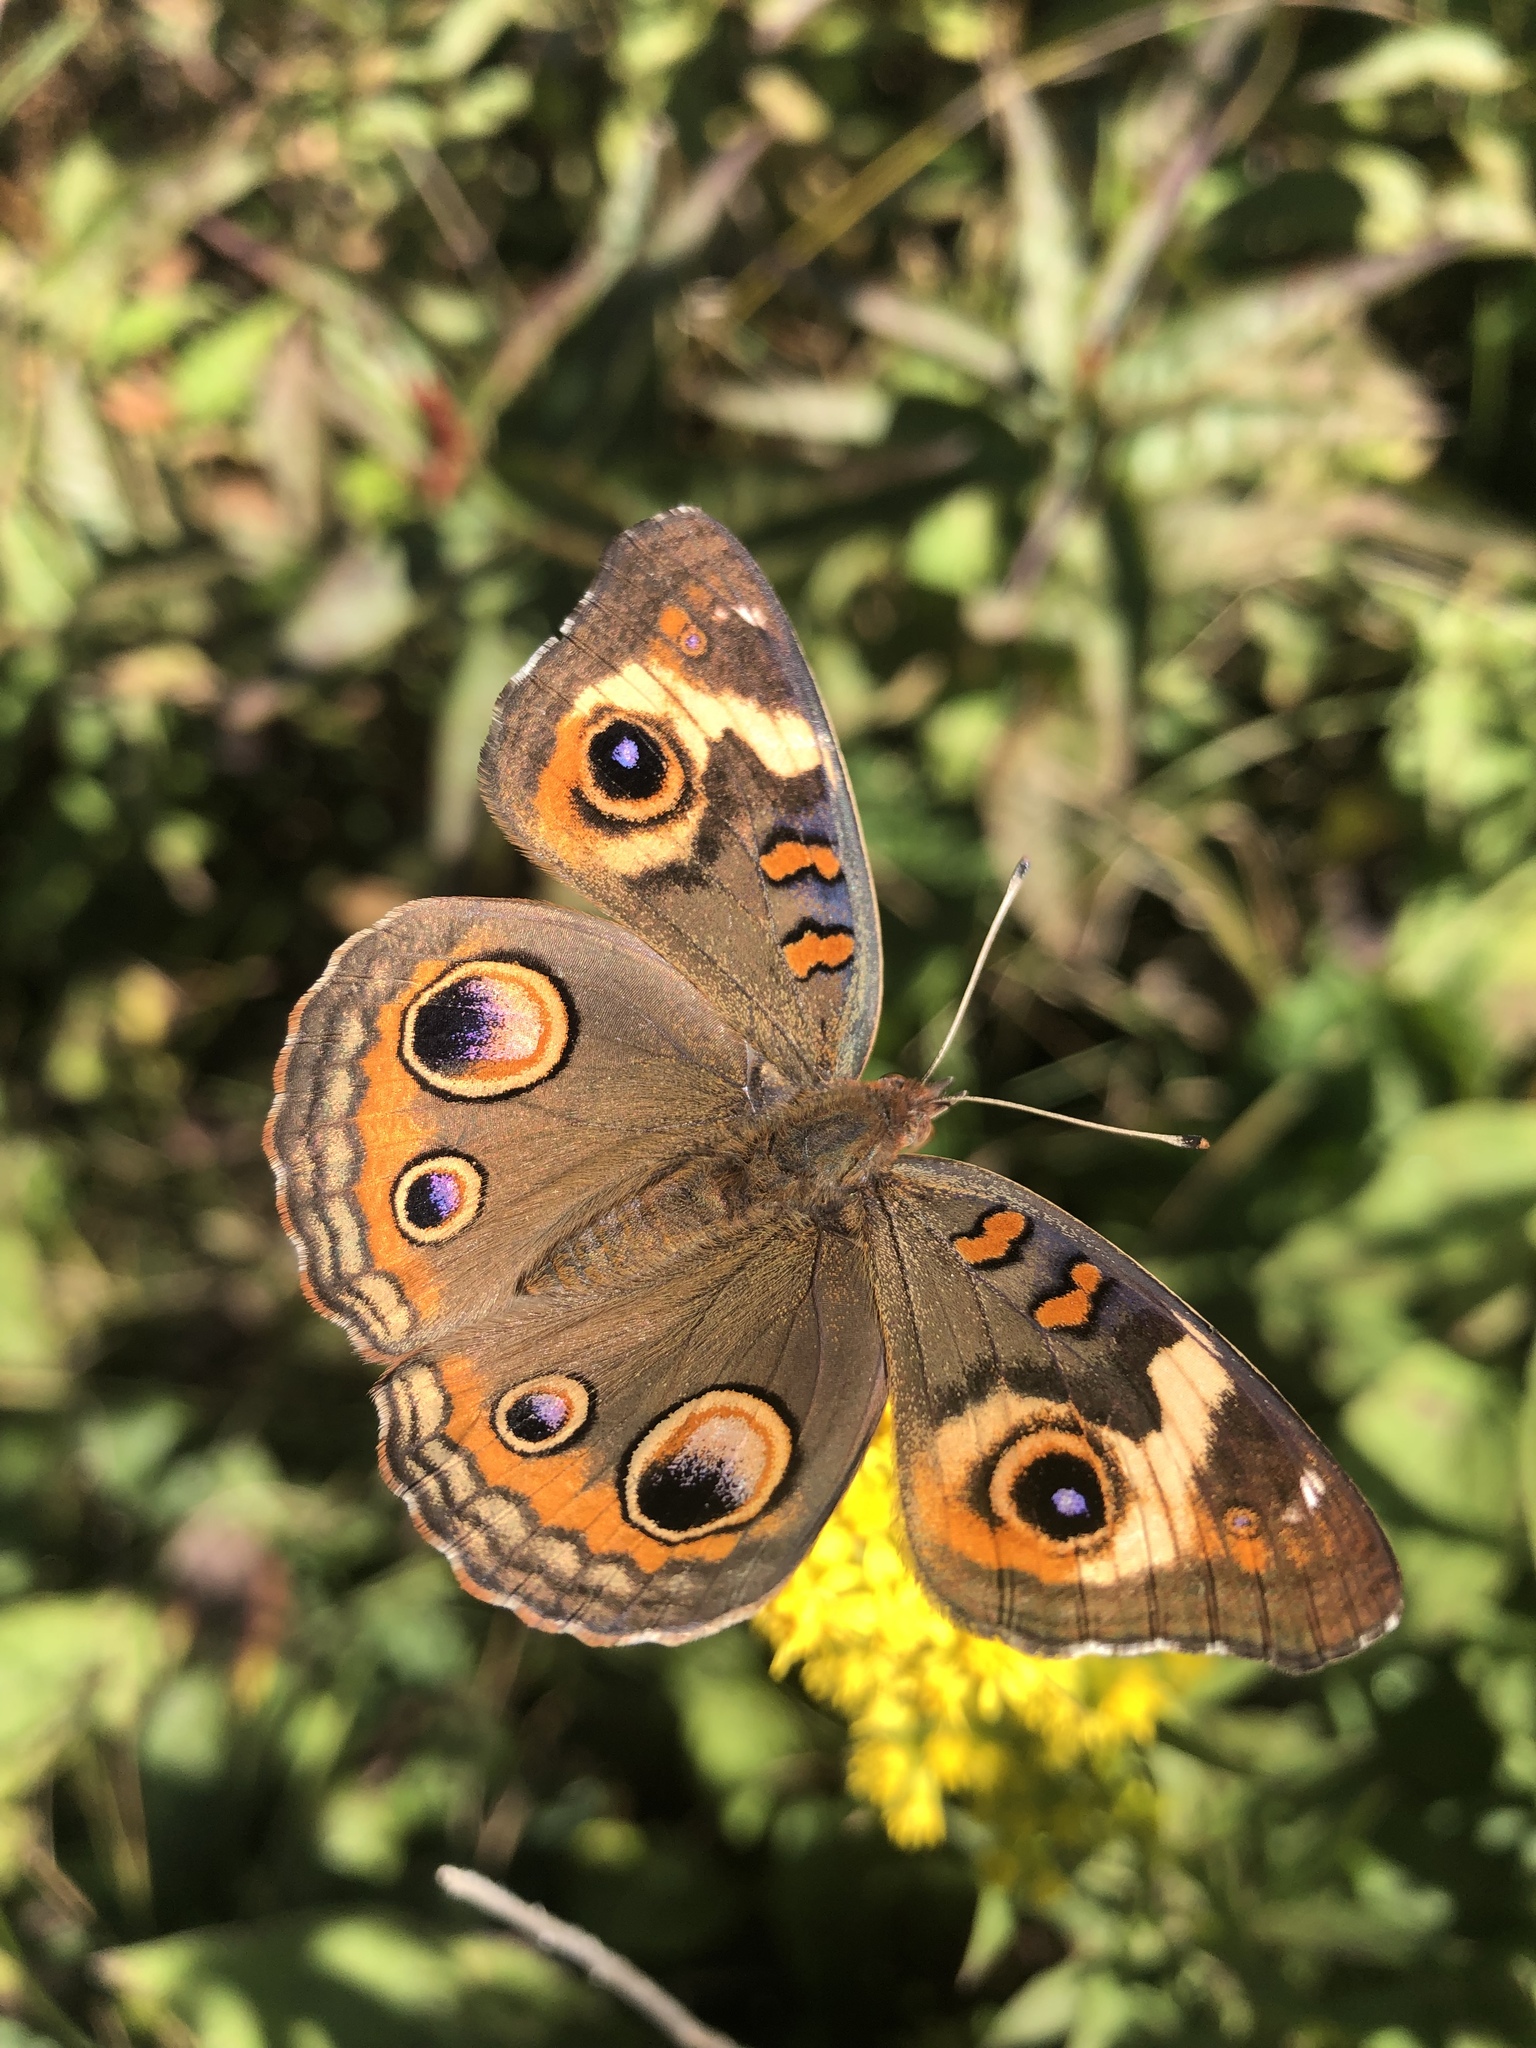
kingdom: Animalia
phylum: Arthropoda
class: Insecta
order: Lepidoptera
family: Nymphalidae
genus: Junonia
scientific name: Junonia coenia
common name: Common buckeye
